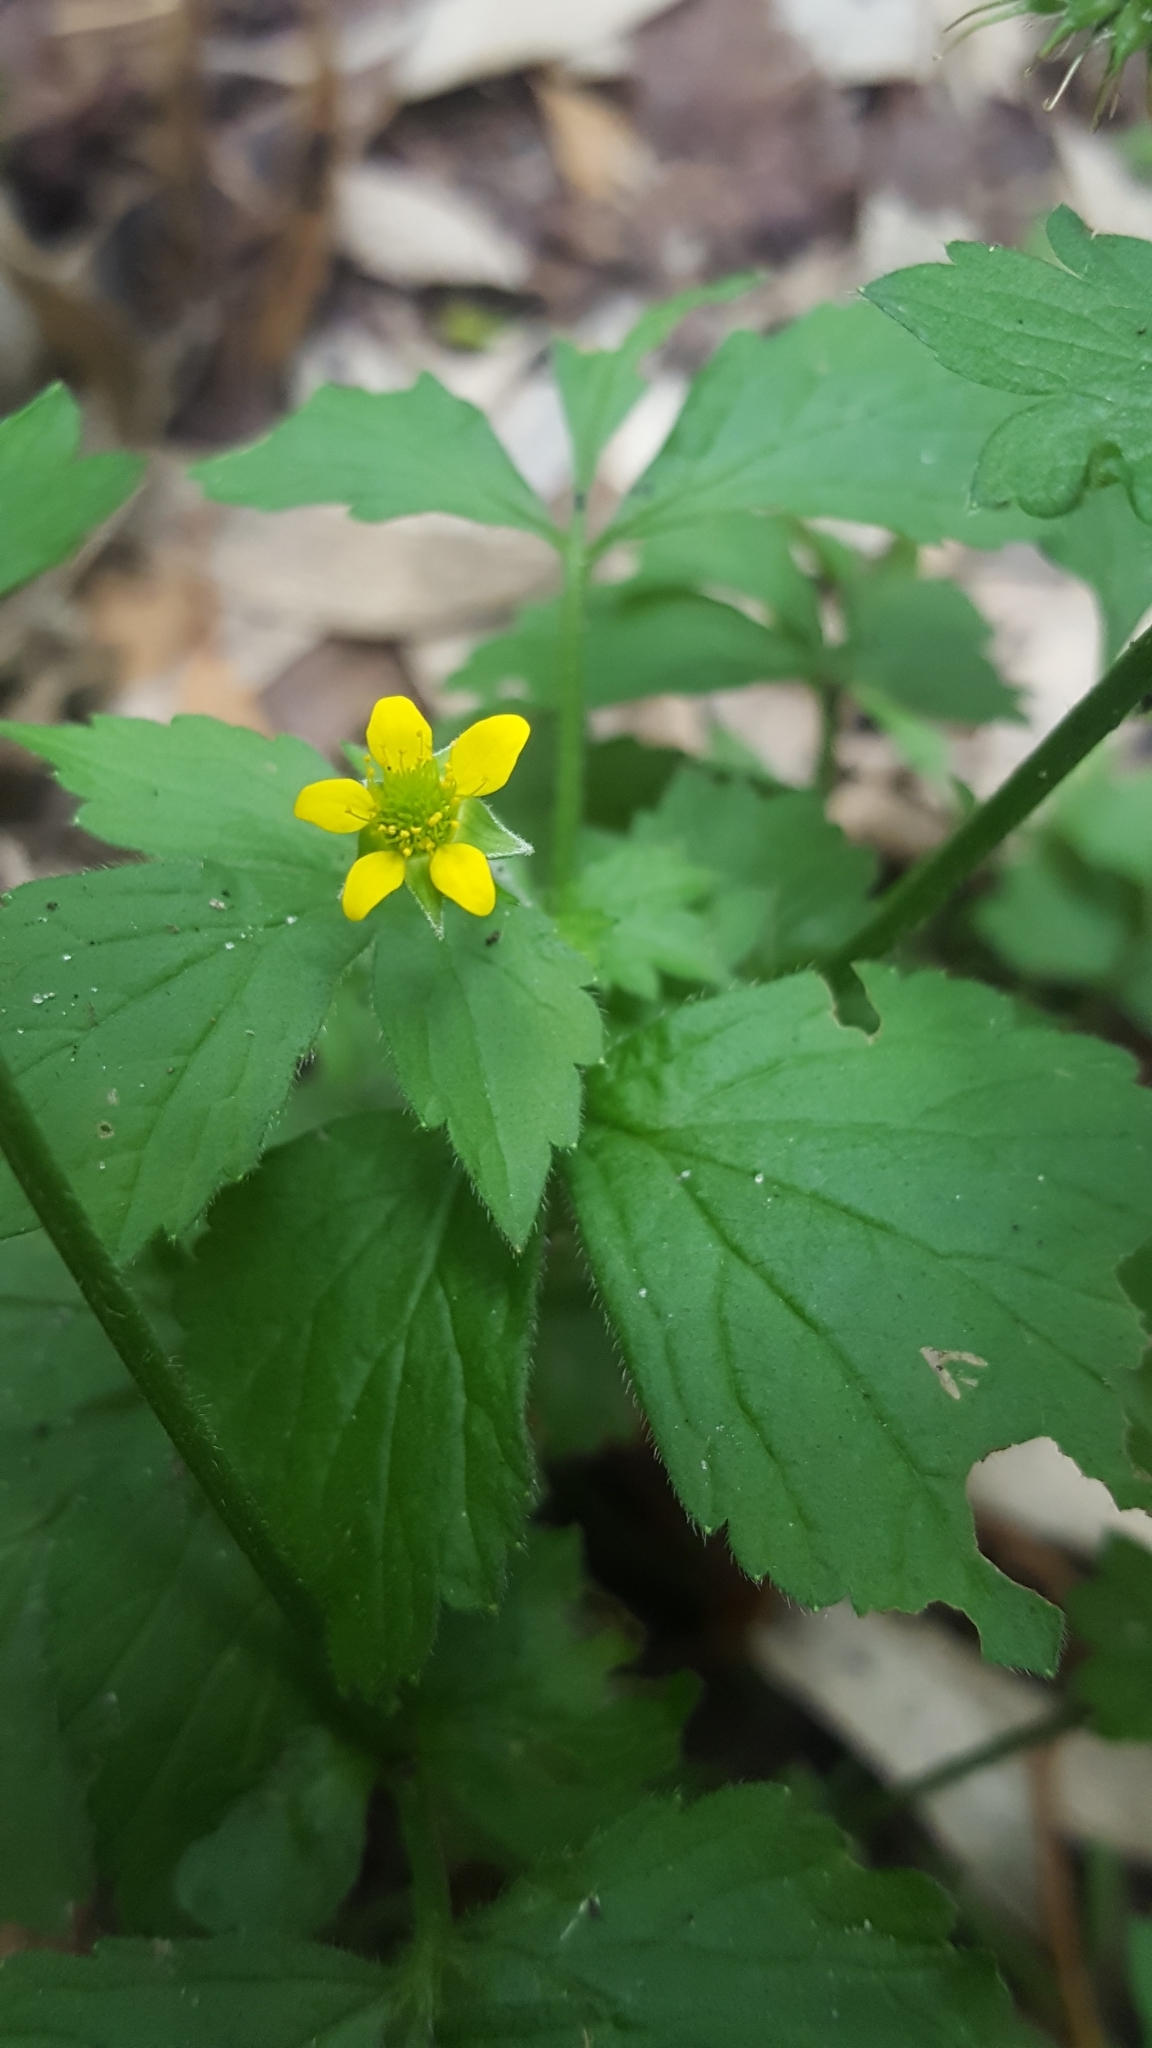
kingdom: Plantae
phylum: Tracheophyta
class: Magnoliopsida
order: Rosales
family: Rosaceae
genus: Geum
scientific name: Geum urbanum
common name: Wood avens
